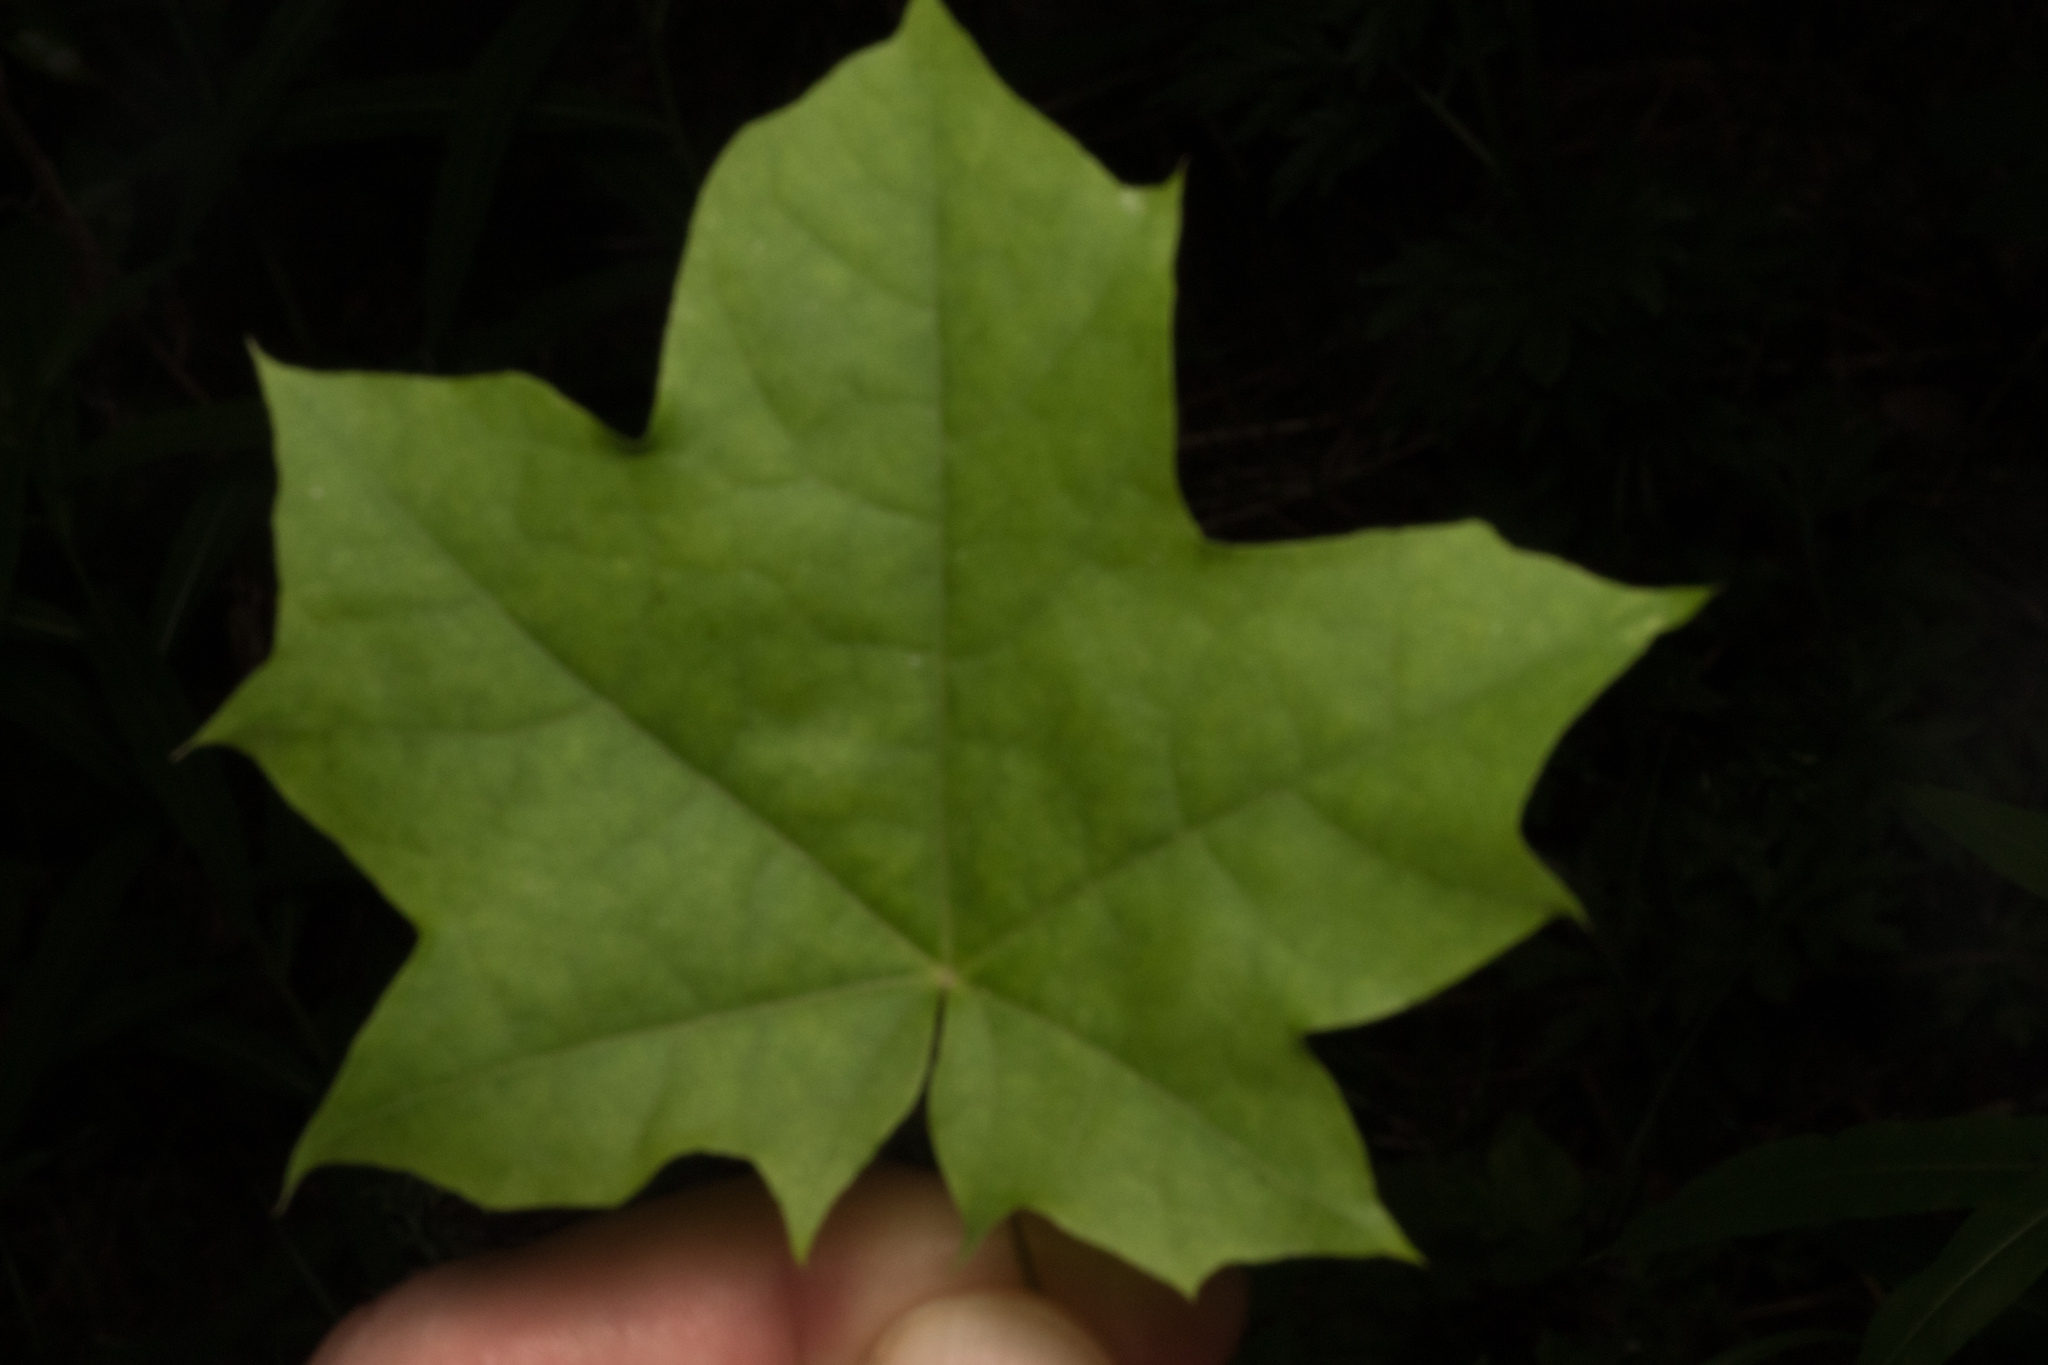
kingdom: Plantae
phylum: Tracheophyta
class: Magnoliopsida
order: Sapindales
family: Sapindaceae
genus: Acer
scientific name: Acer platanoides
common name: Norway maple
